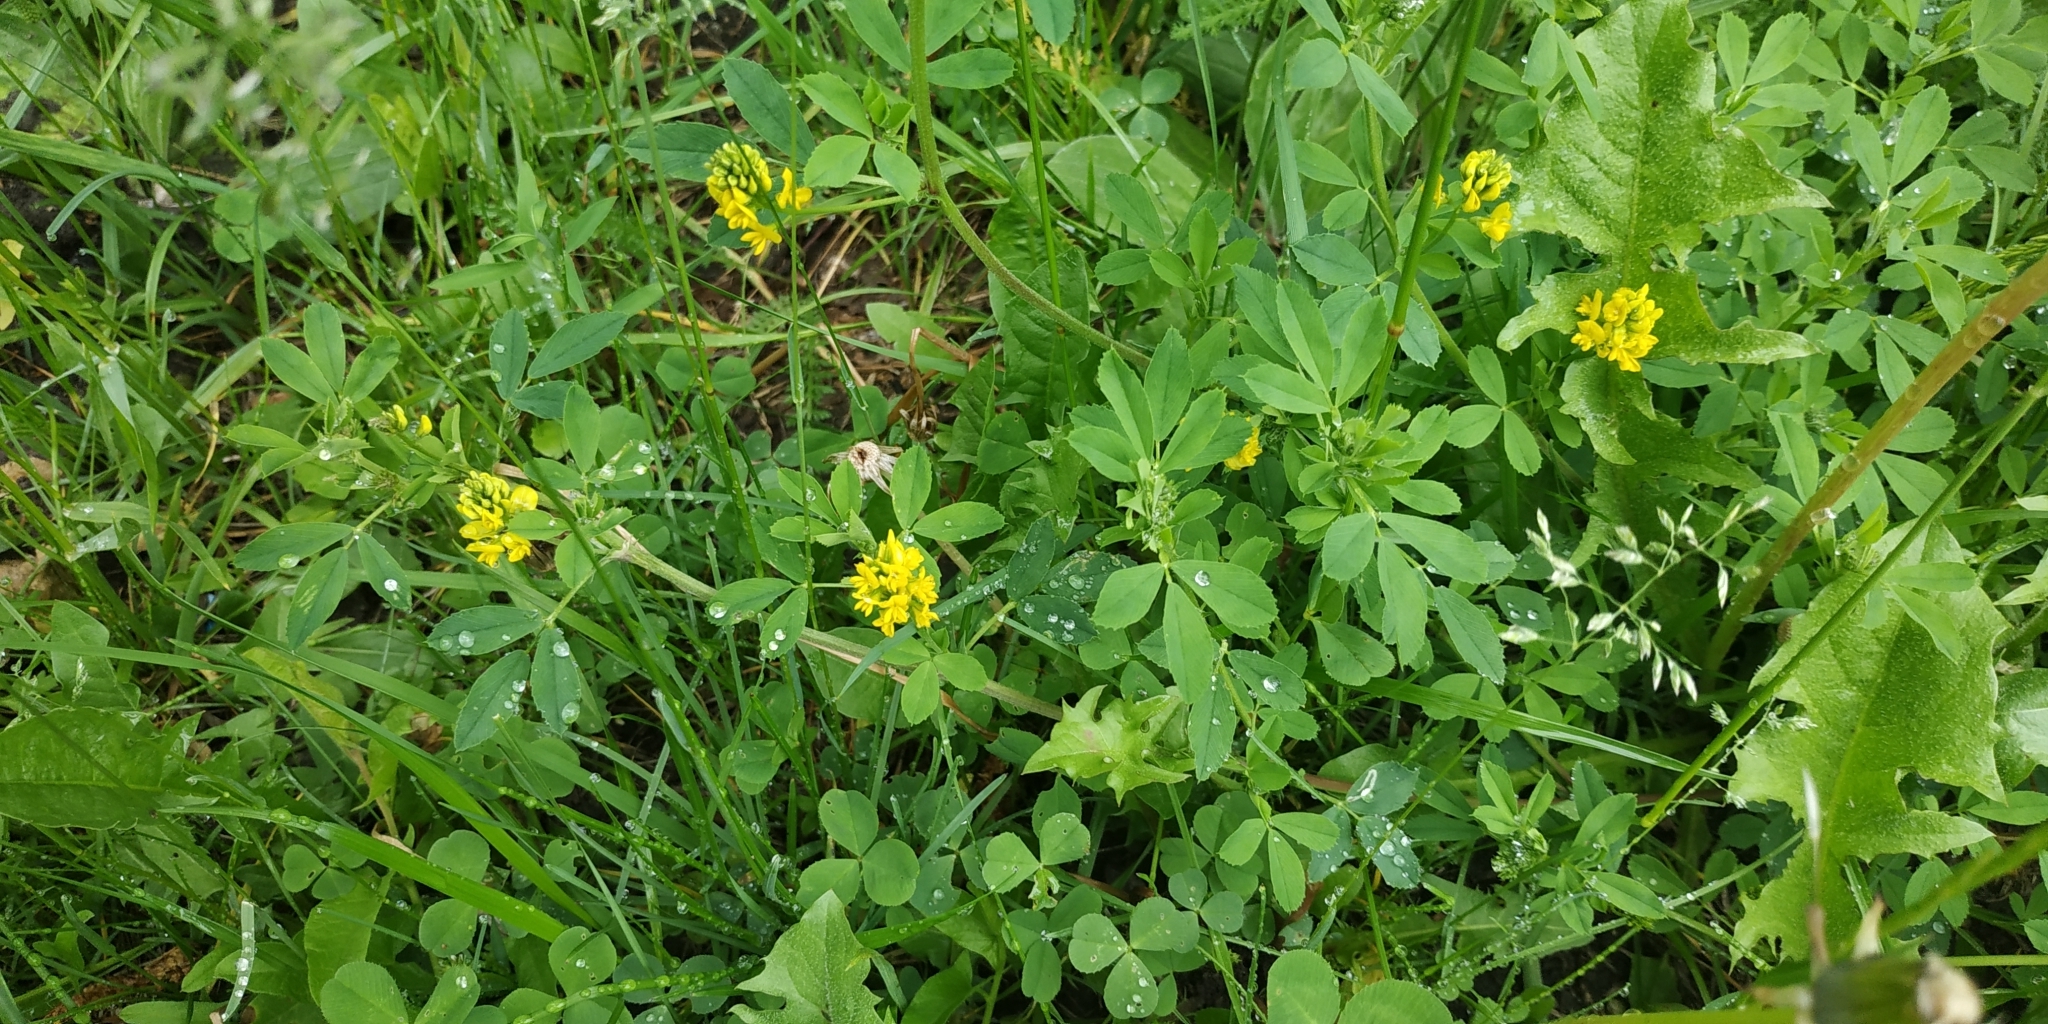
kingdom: Plantae
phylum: Tracheophyta
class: Magnoliopsida
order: Fabales
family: Fabaceae
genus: Medicago
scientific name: Medicago falcata
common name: Sickle medick
